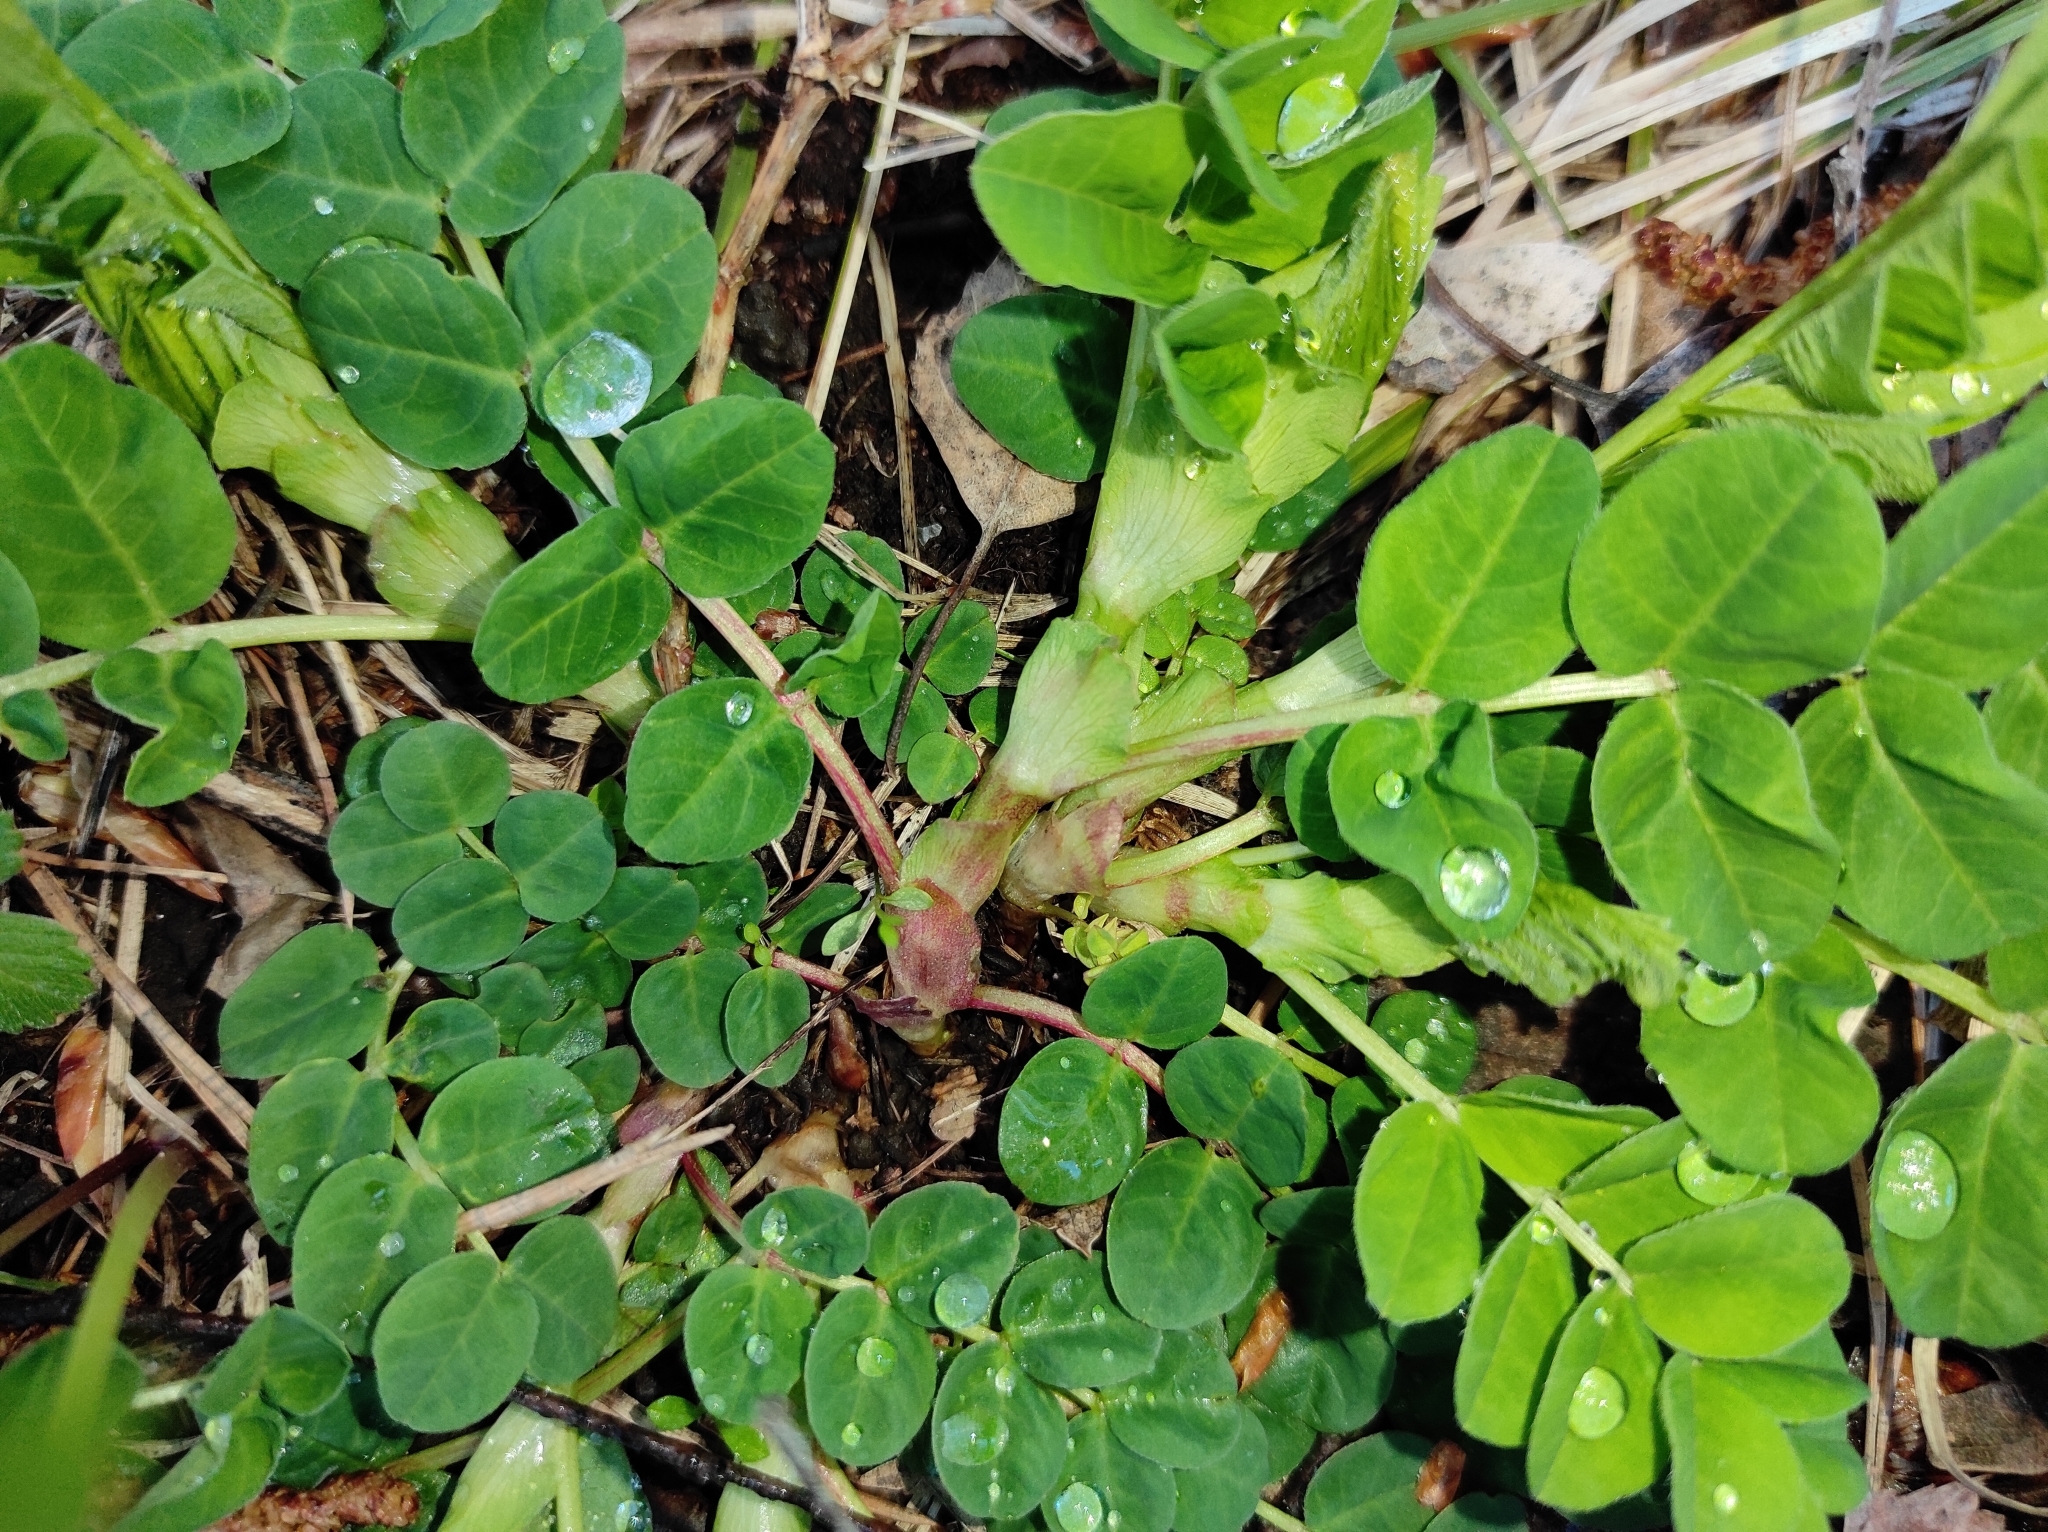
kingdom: Plantae
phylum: Tracheophyta
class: Magnoliopsida
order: Fabales
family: Fabaceae
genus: Astragalus
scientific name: Astragalus glycyphyllos
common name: Wild liquorice
